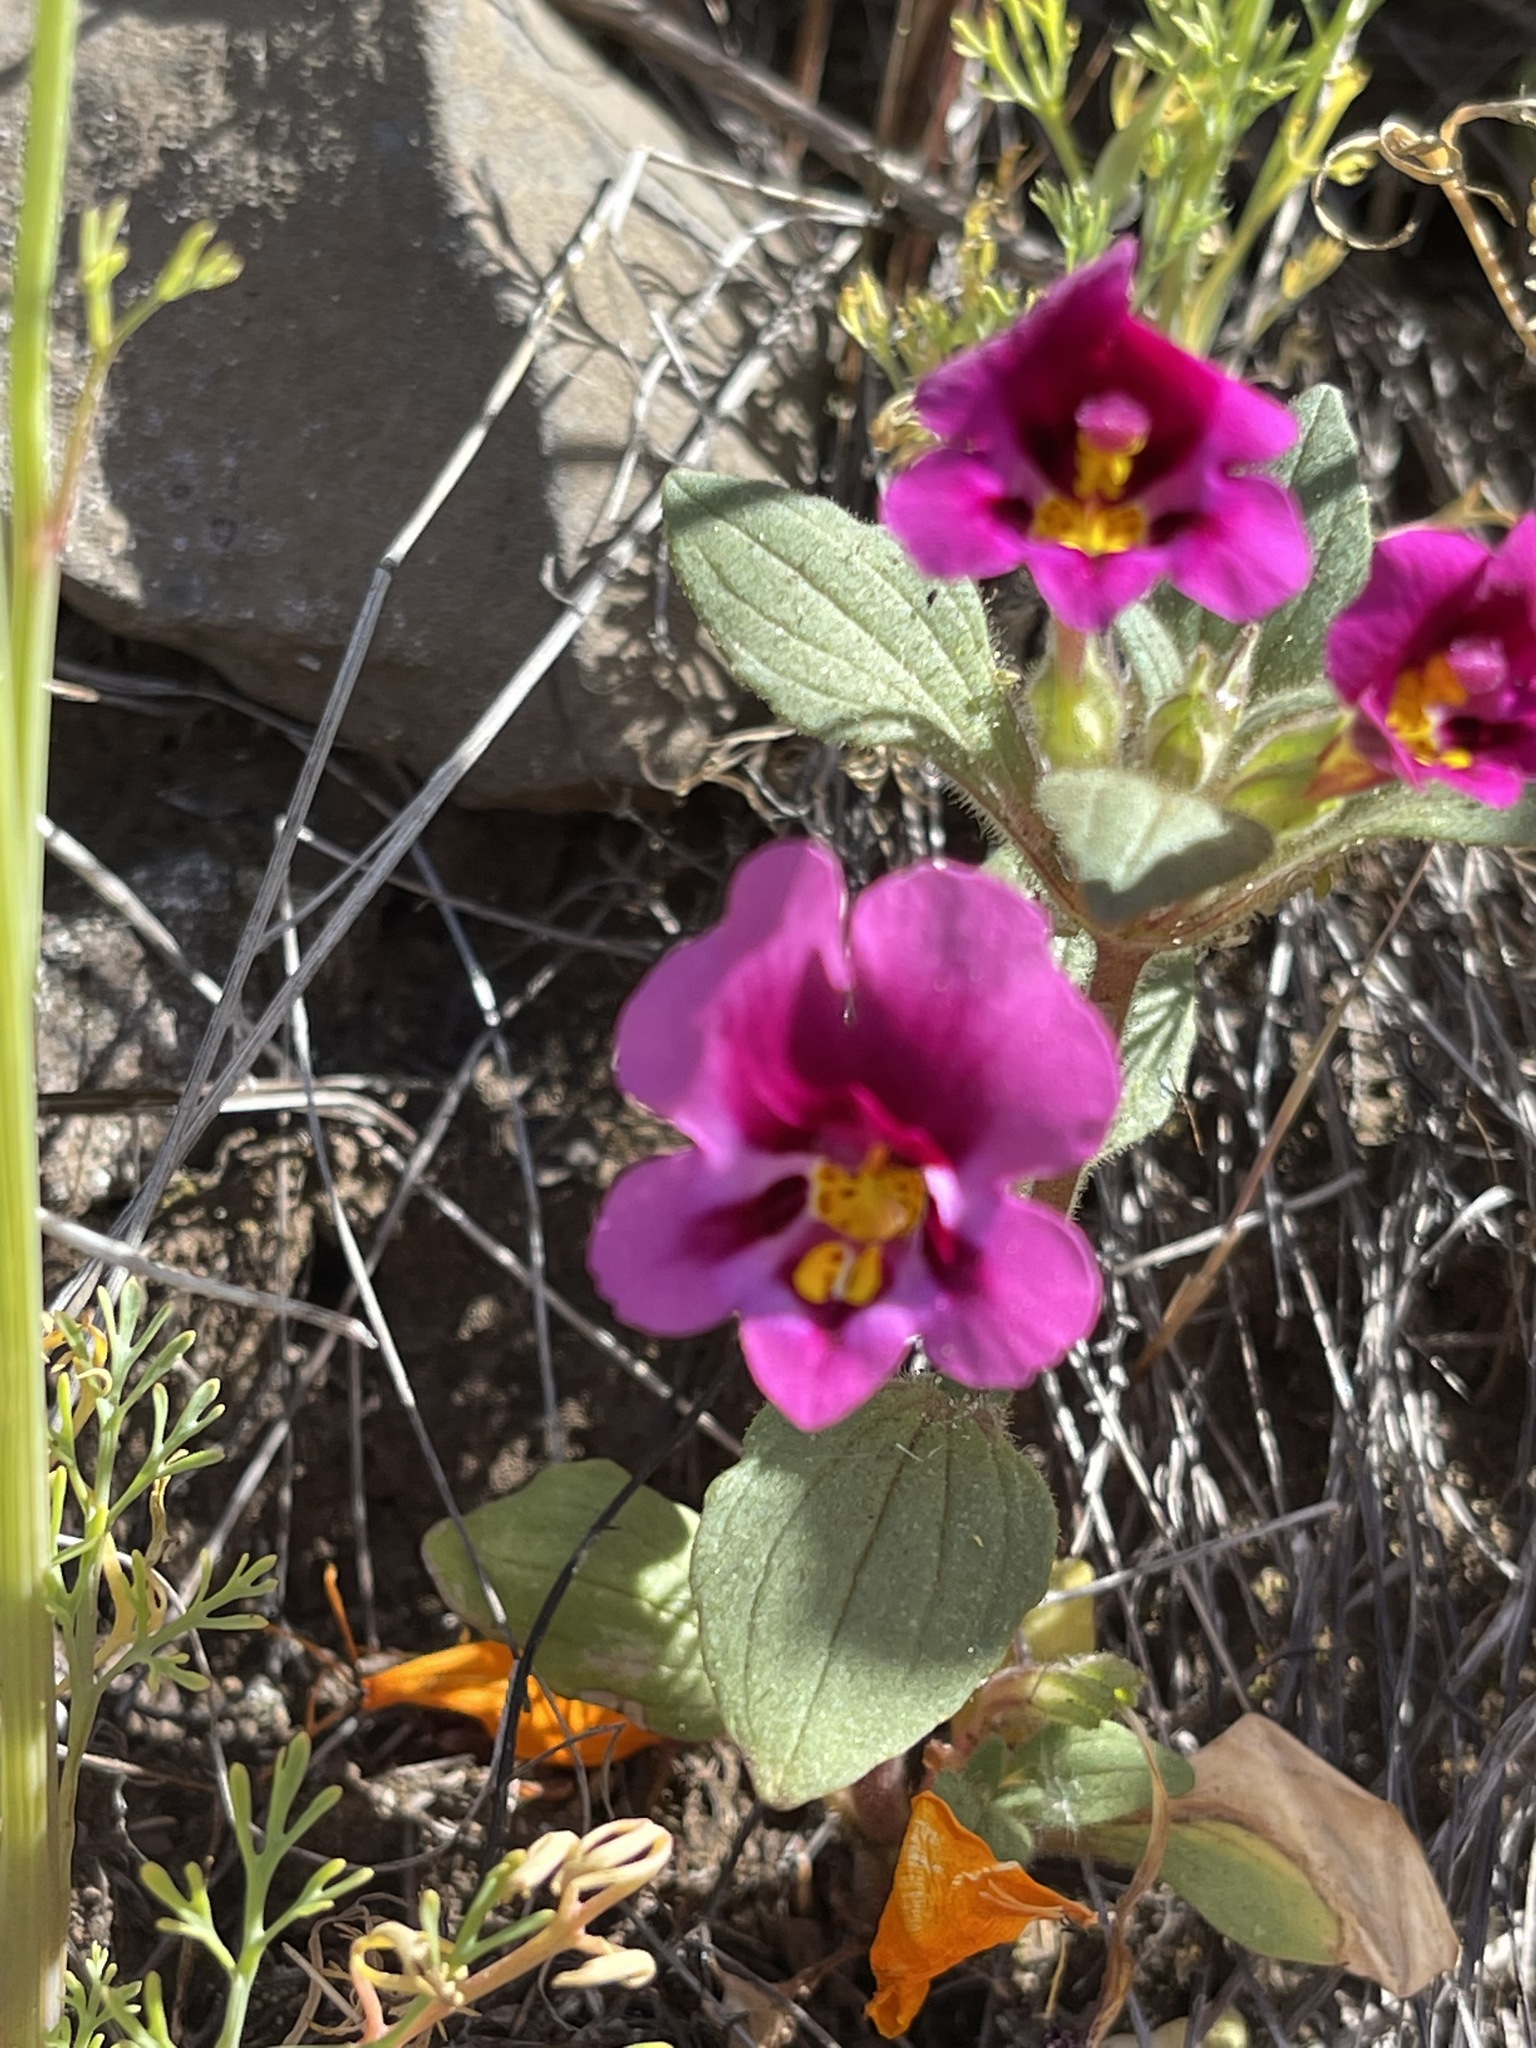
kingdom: Plantae
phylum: Tracheophyta
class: Magnoliopsida
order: Lamiales
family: Phrymaceae
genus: Diplacus
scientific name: Diplacus kelloggii
